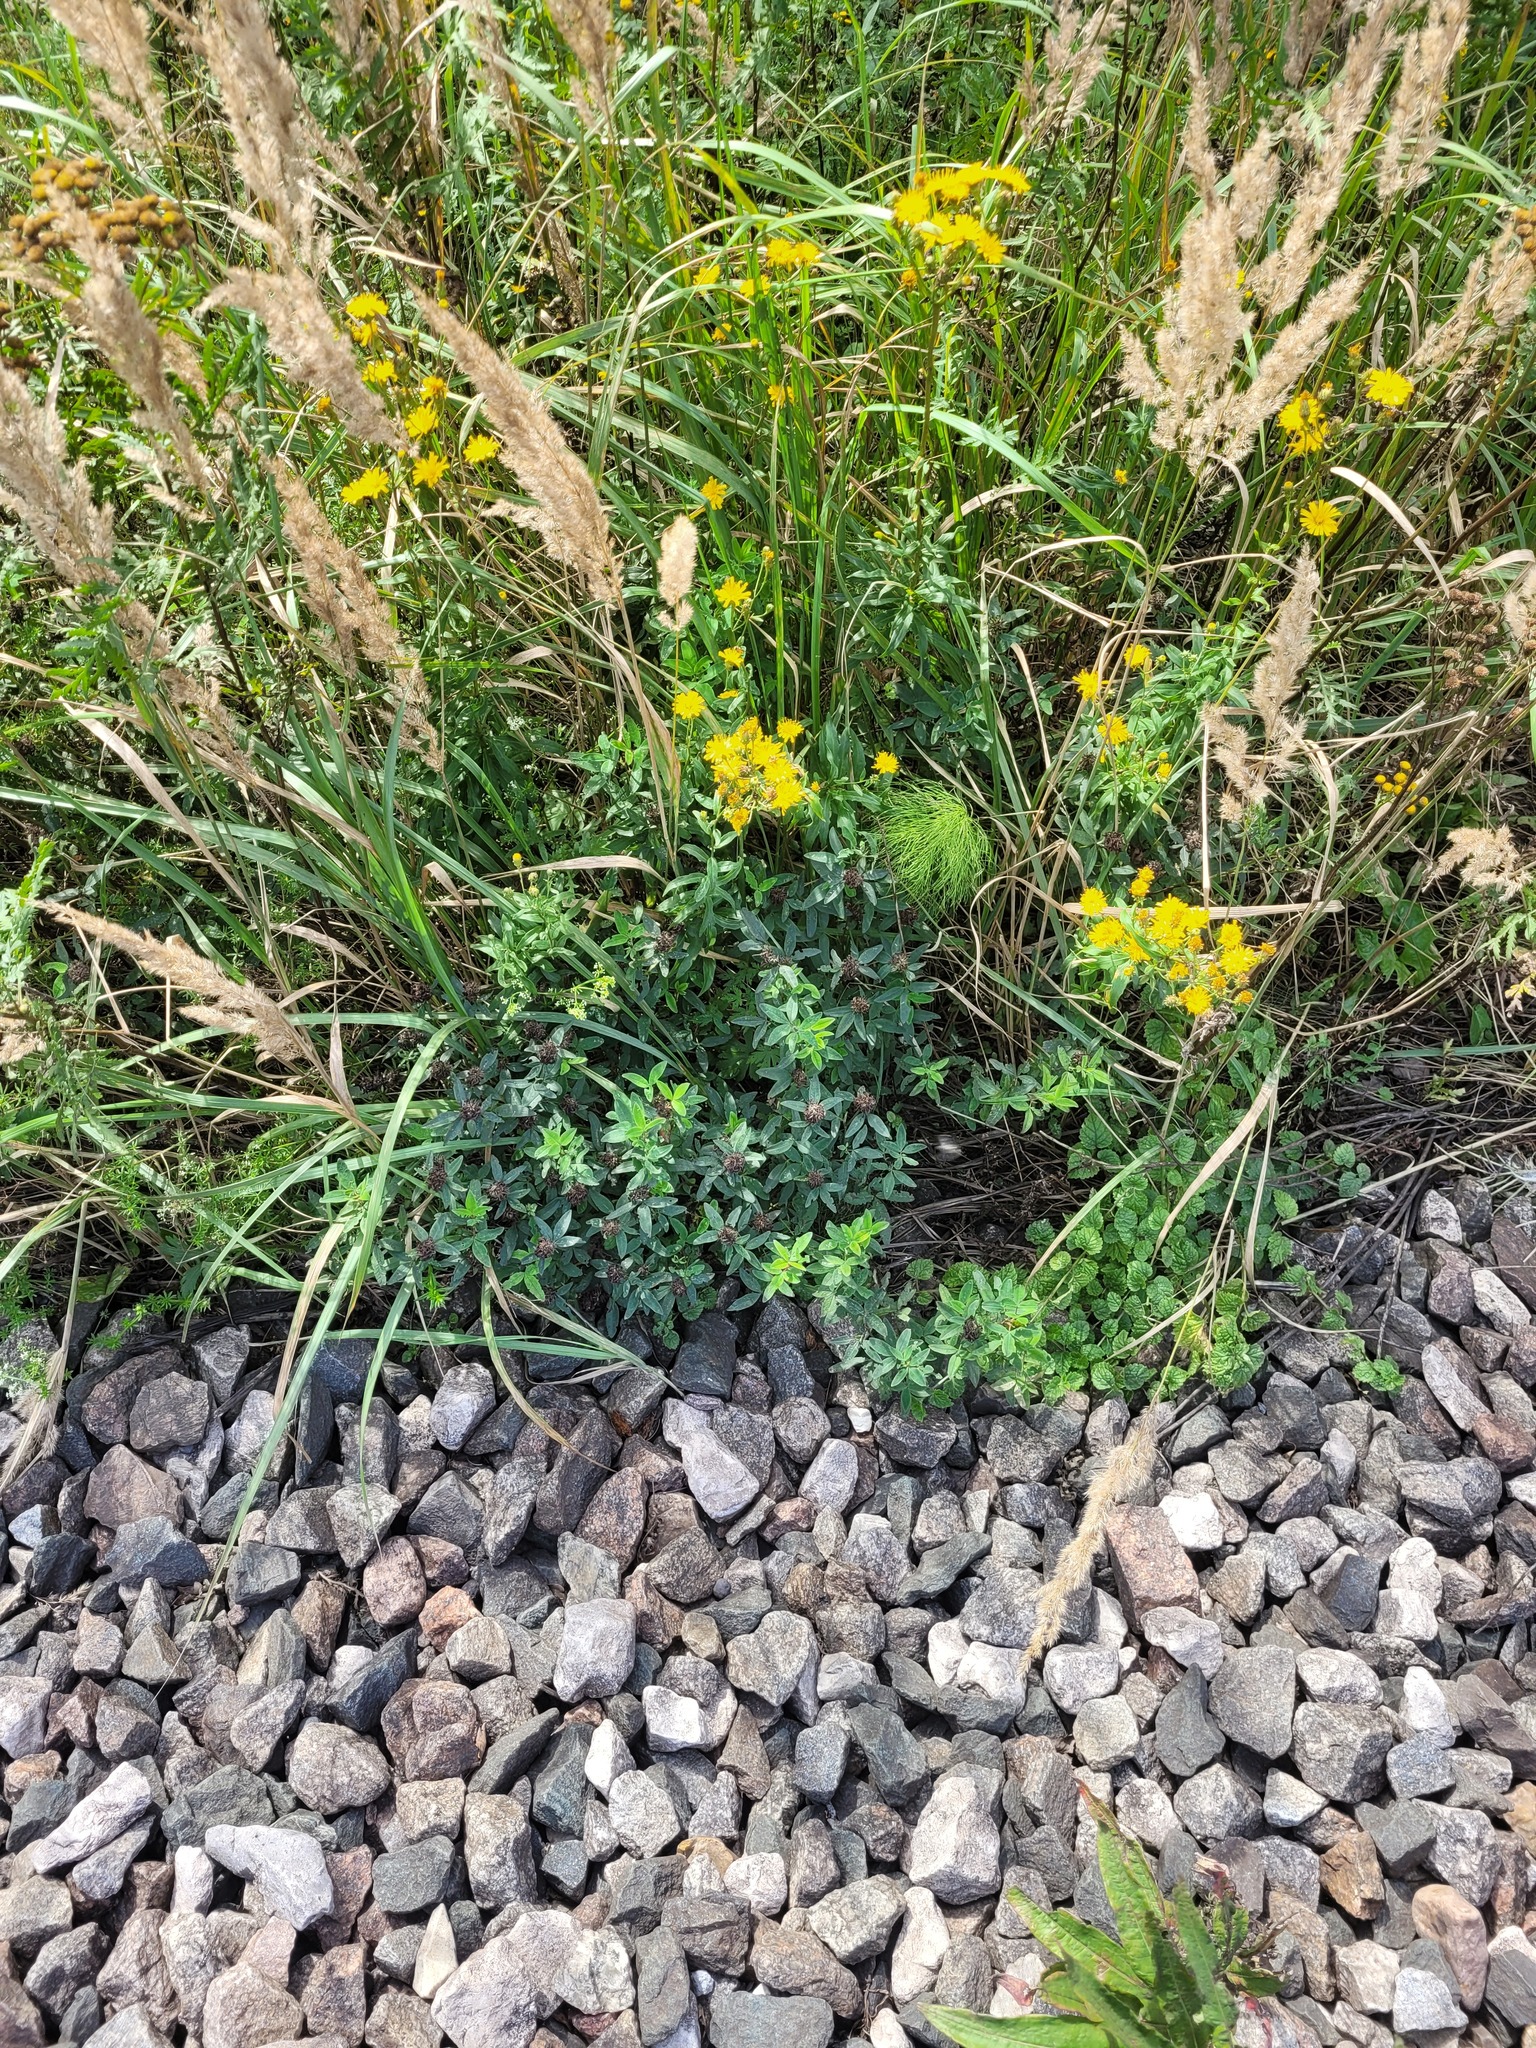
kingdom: Plantae
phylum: Tracheophyta
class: Magnoliopsida
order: Fabales
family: Fabaceae
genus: Trifolium
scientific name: Trifolium medium
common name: Zigzag clover
